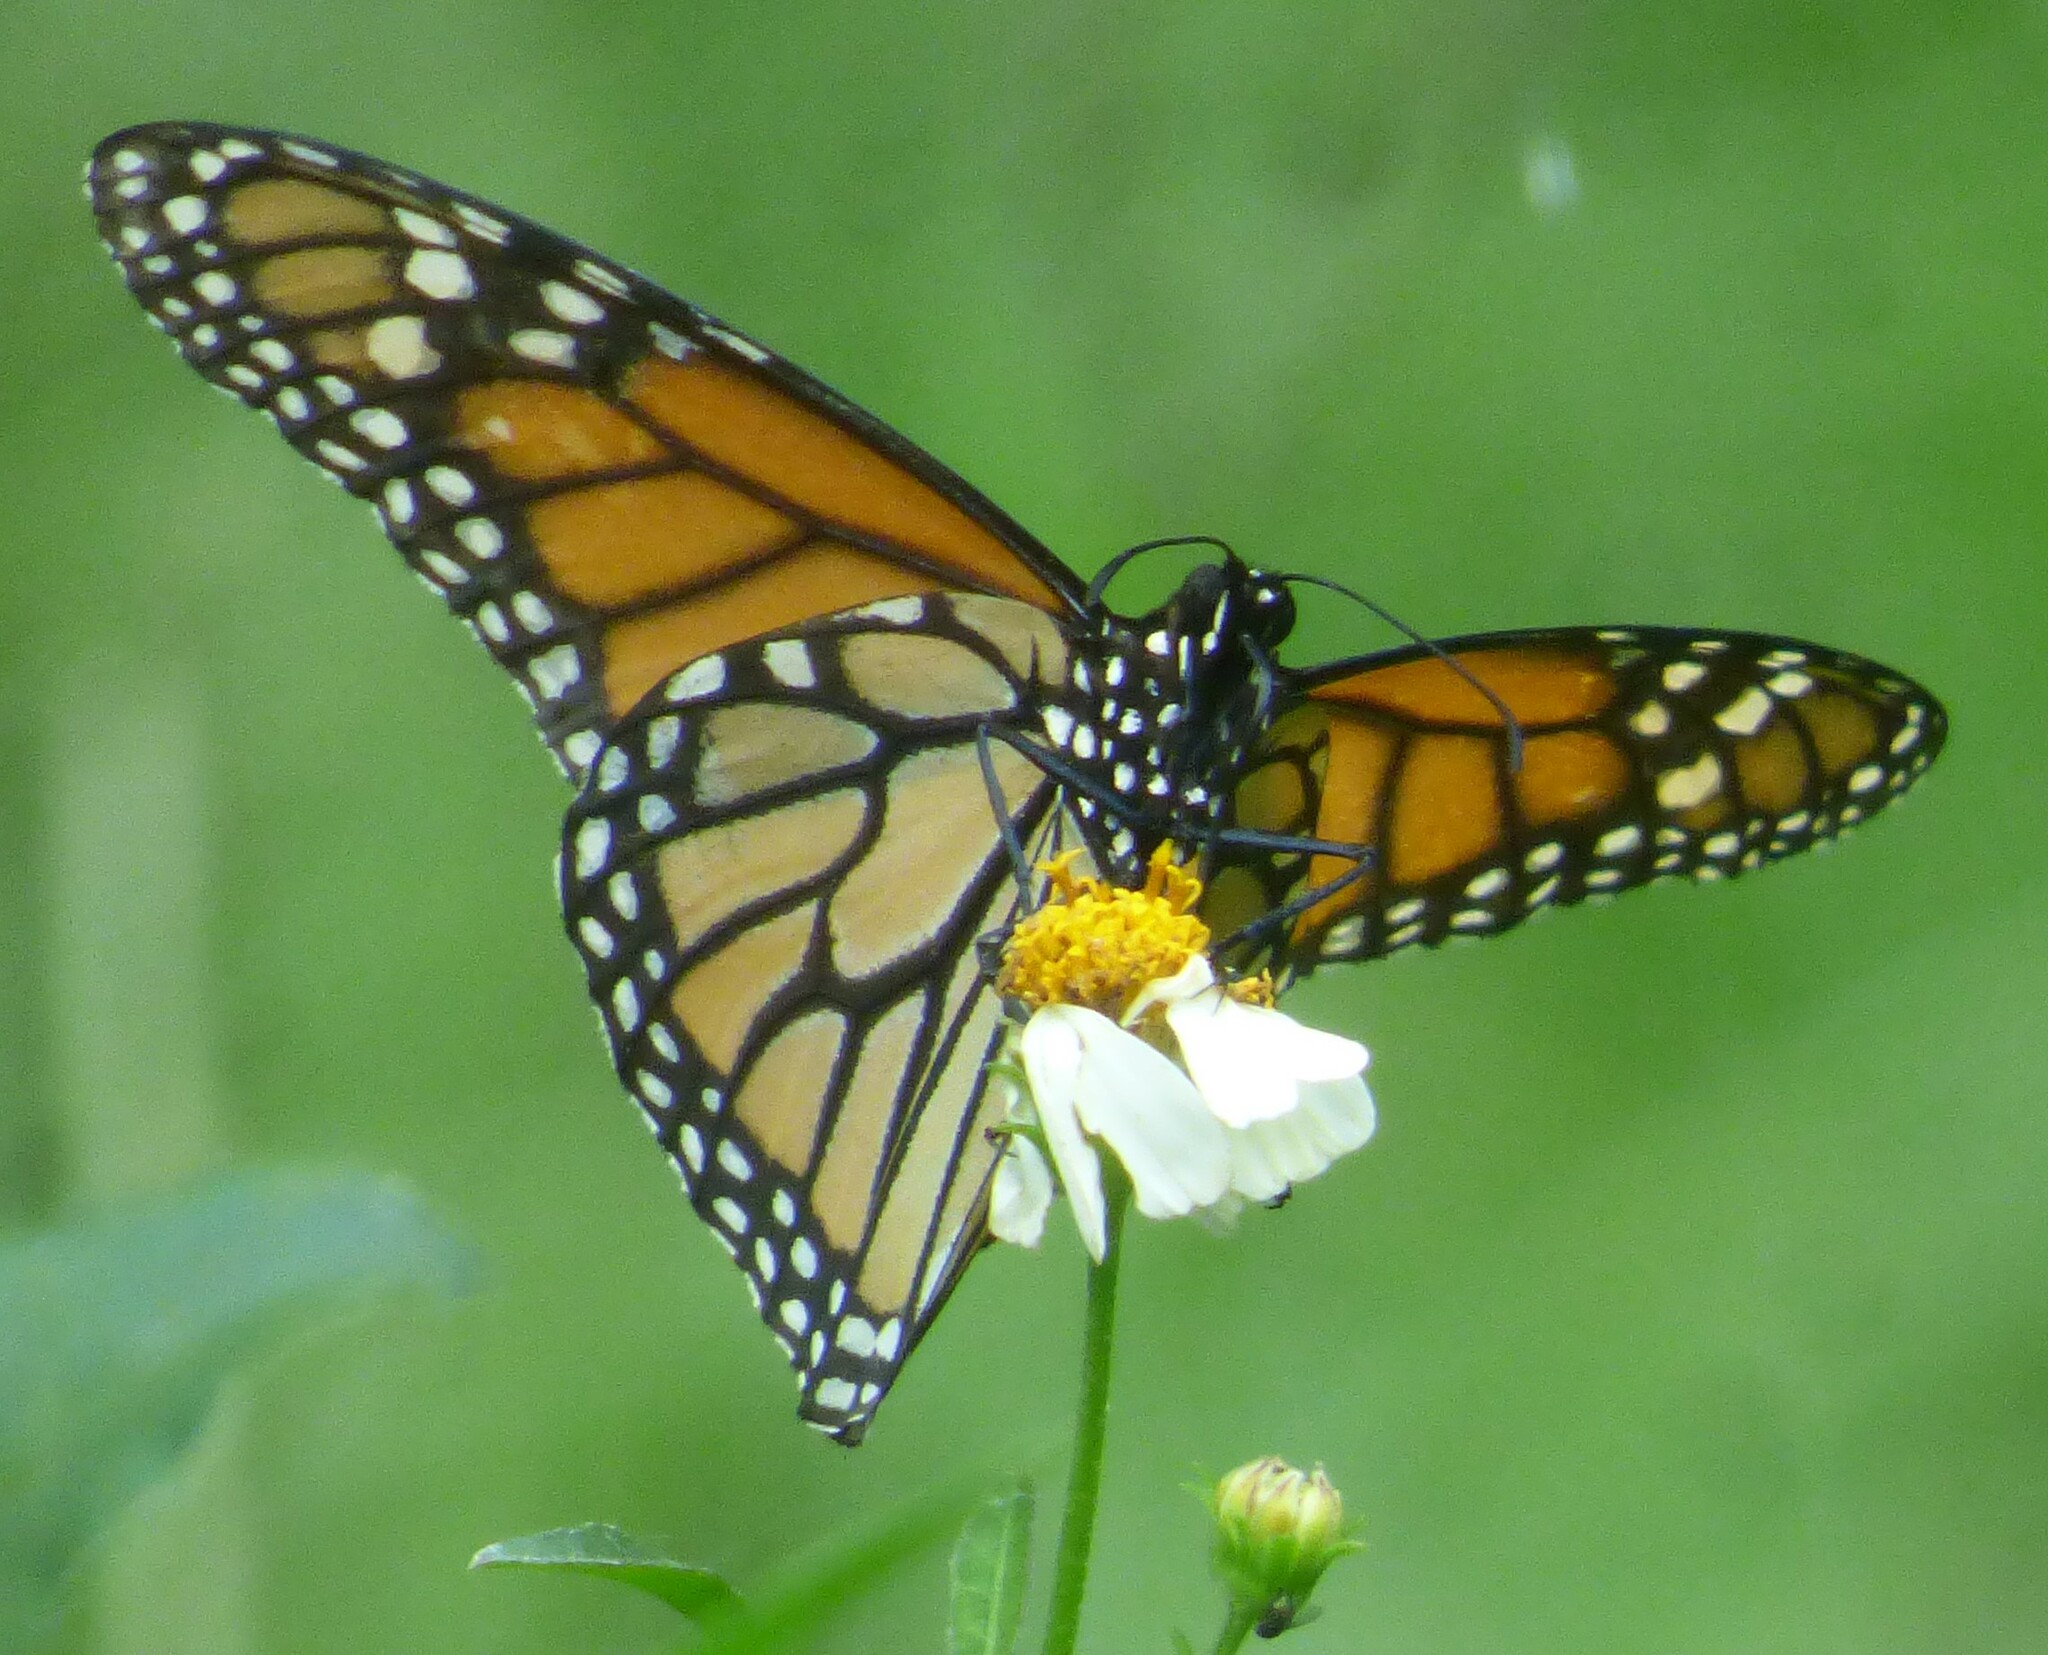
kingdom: Animalia
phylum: Arthropoda
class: Insecta
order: Lepidoptera
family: Nymphalidae
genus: Danaus
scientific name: Danaus plexippus
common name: Monarch
